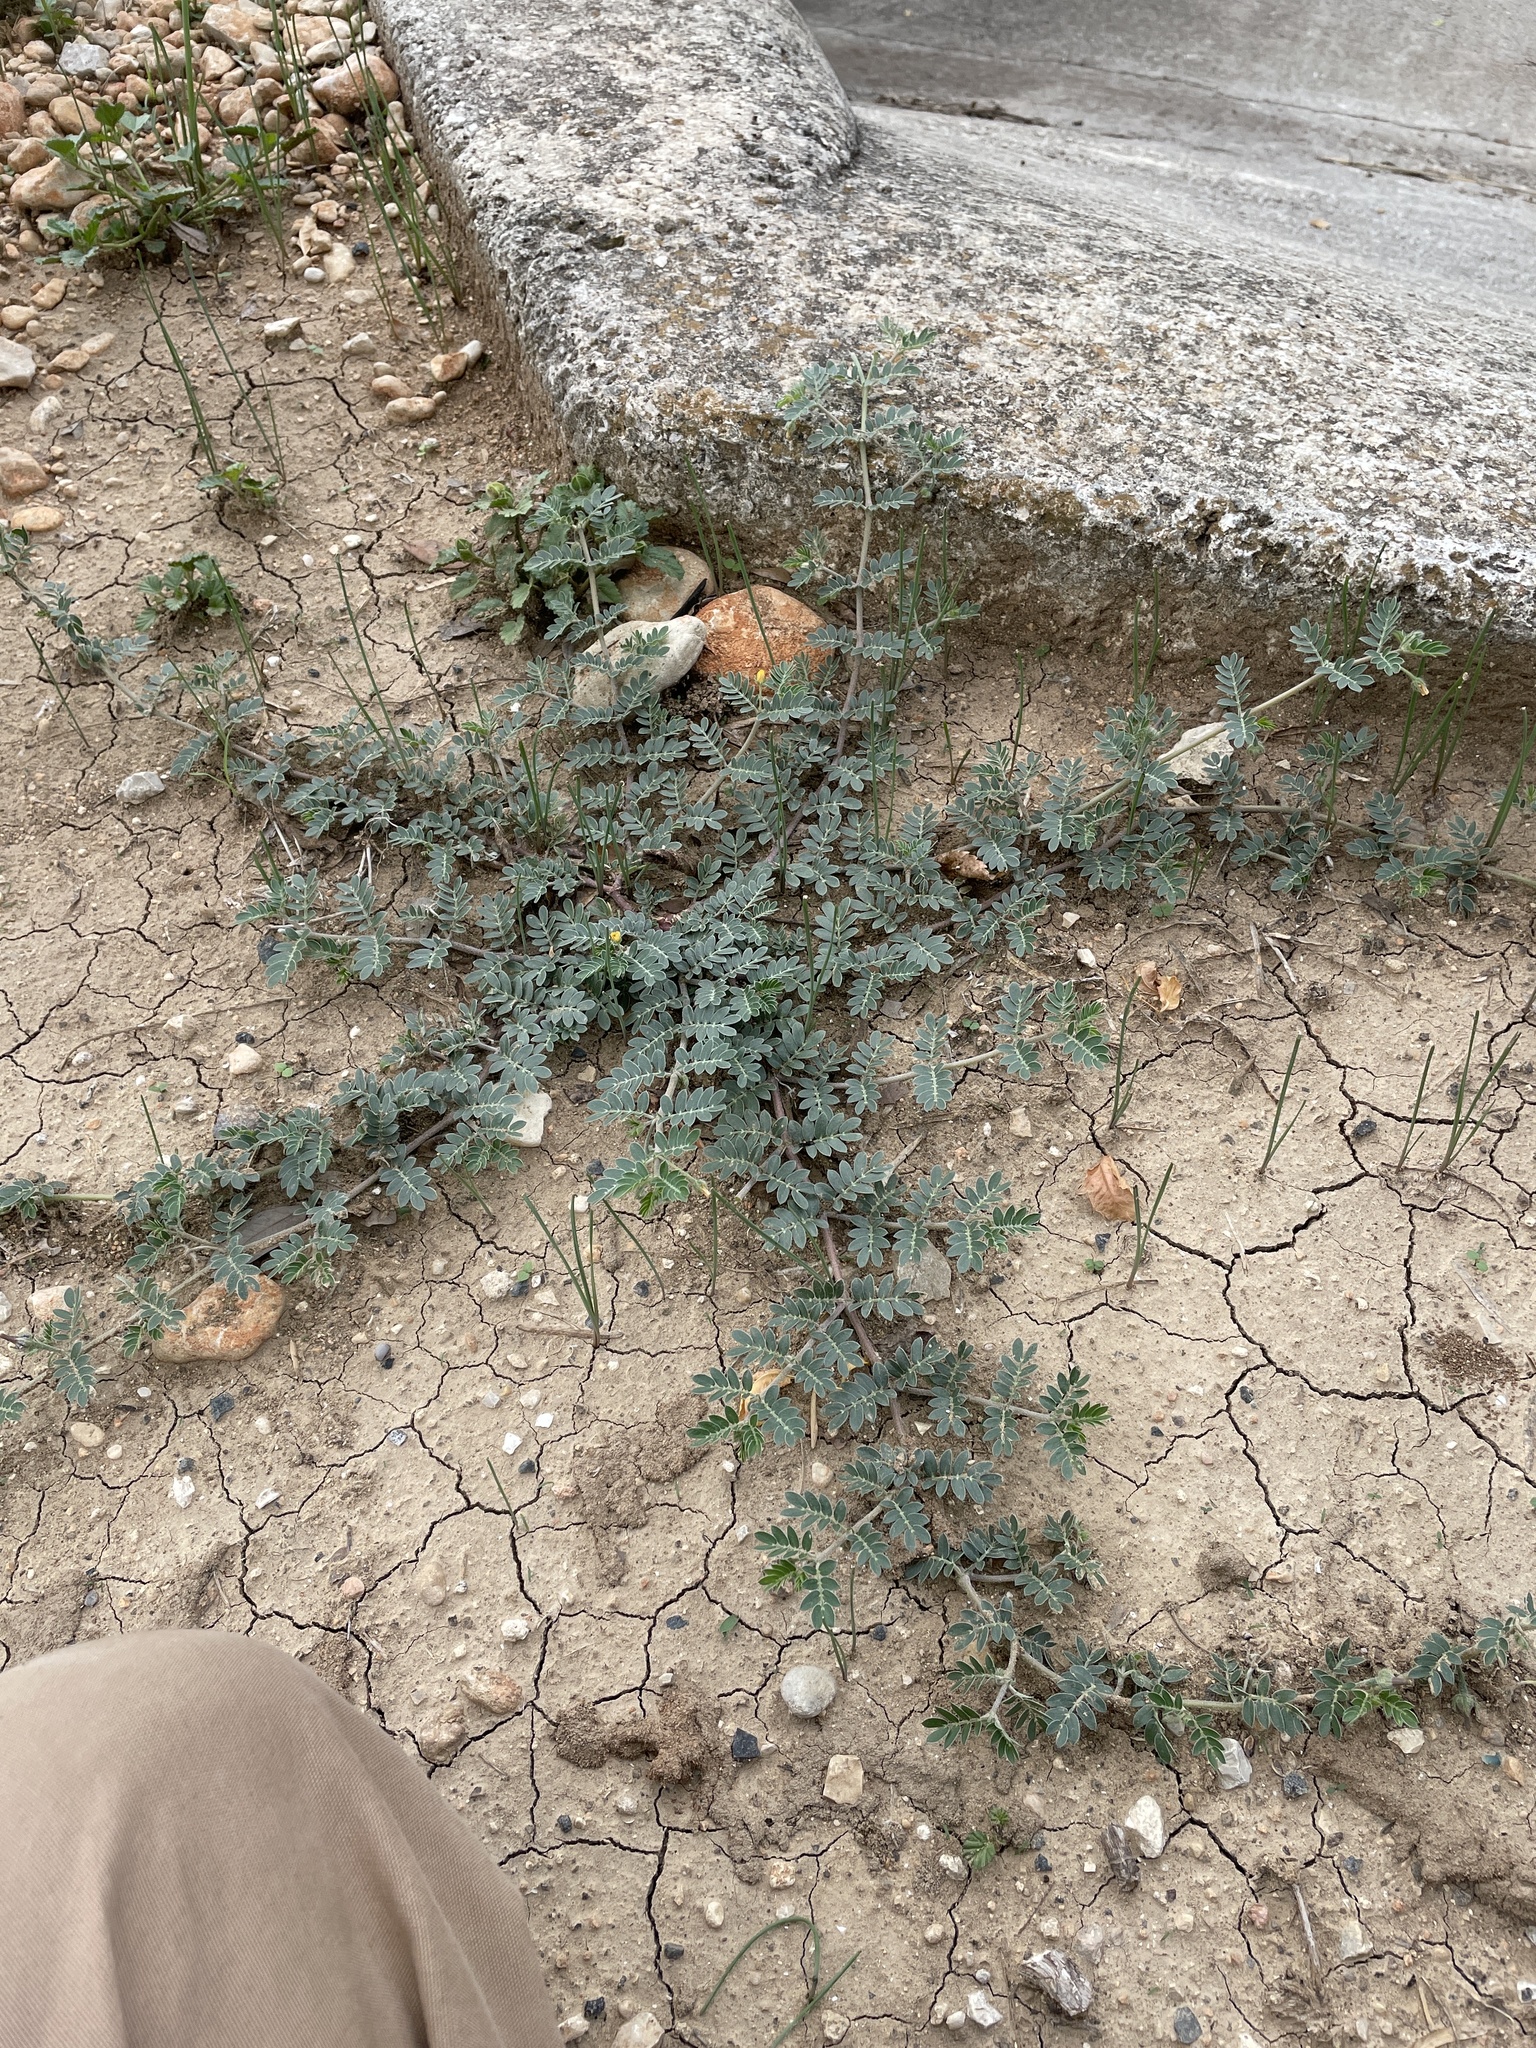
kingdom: Plantae
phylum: Tracheophyta
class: Magnoliopsida
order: Zygophyllales
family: Zygophyllaceae
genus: Kallstroemia
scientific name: Kallstroemia parviflora
